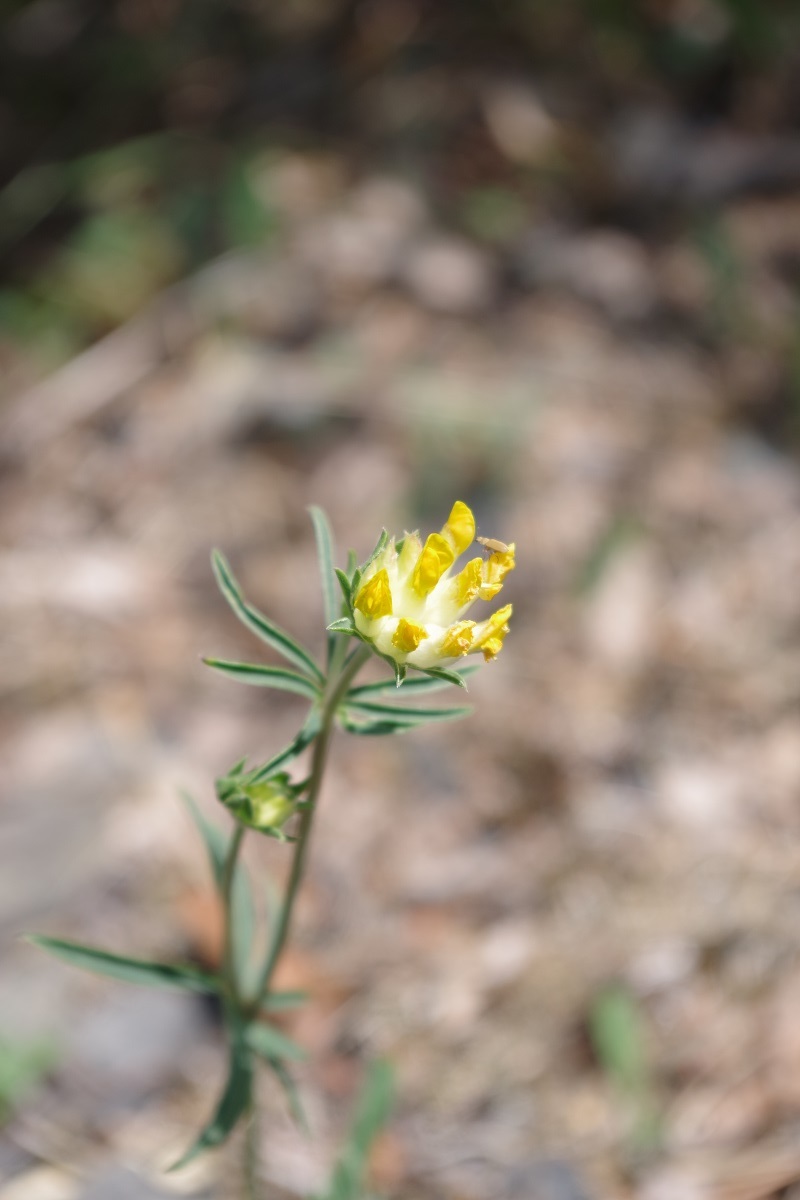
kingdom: Plantae
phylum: Tracheophyta
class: Magnoliopsida
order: Fabales
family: Fabaceae
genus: Anthyllis
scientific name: Anthyllis vulneraria
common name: Kidney vetch
